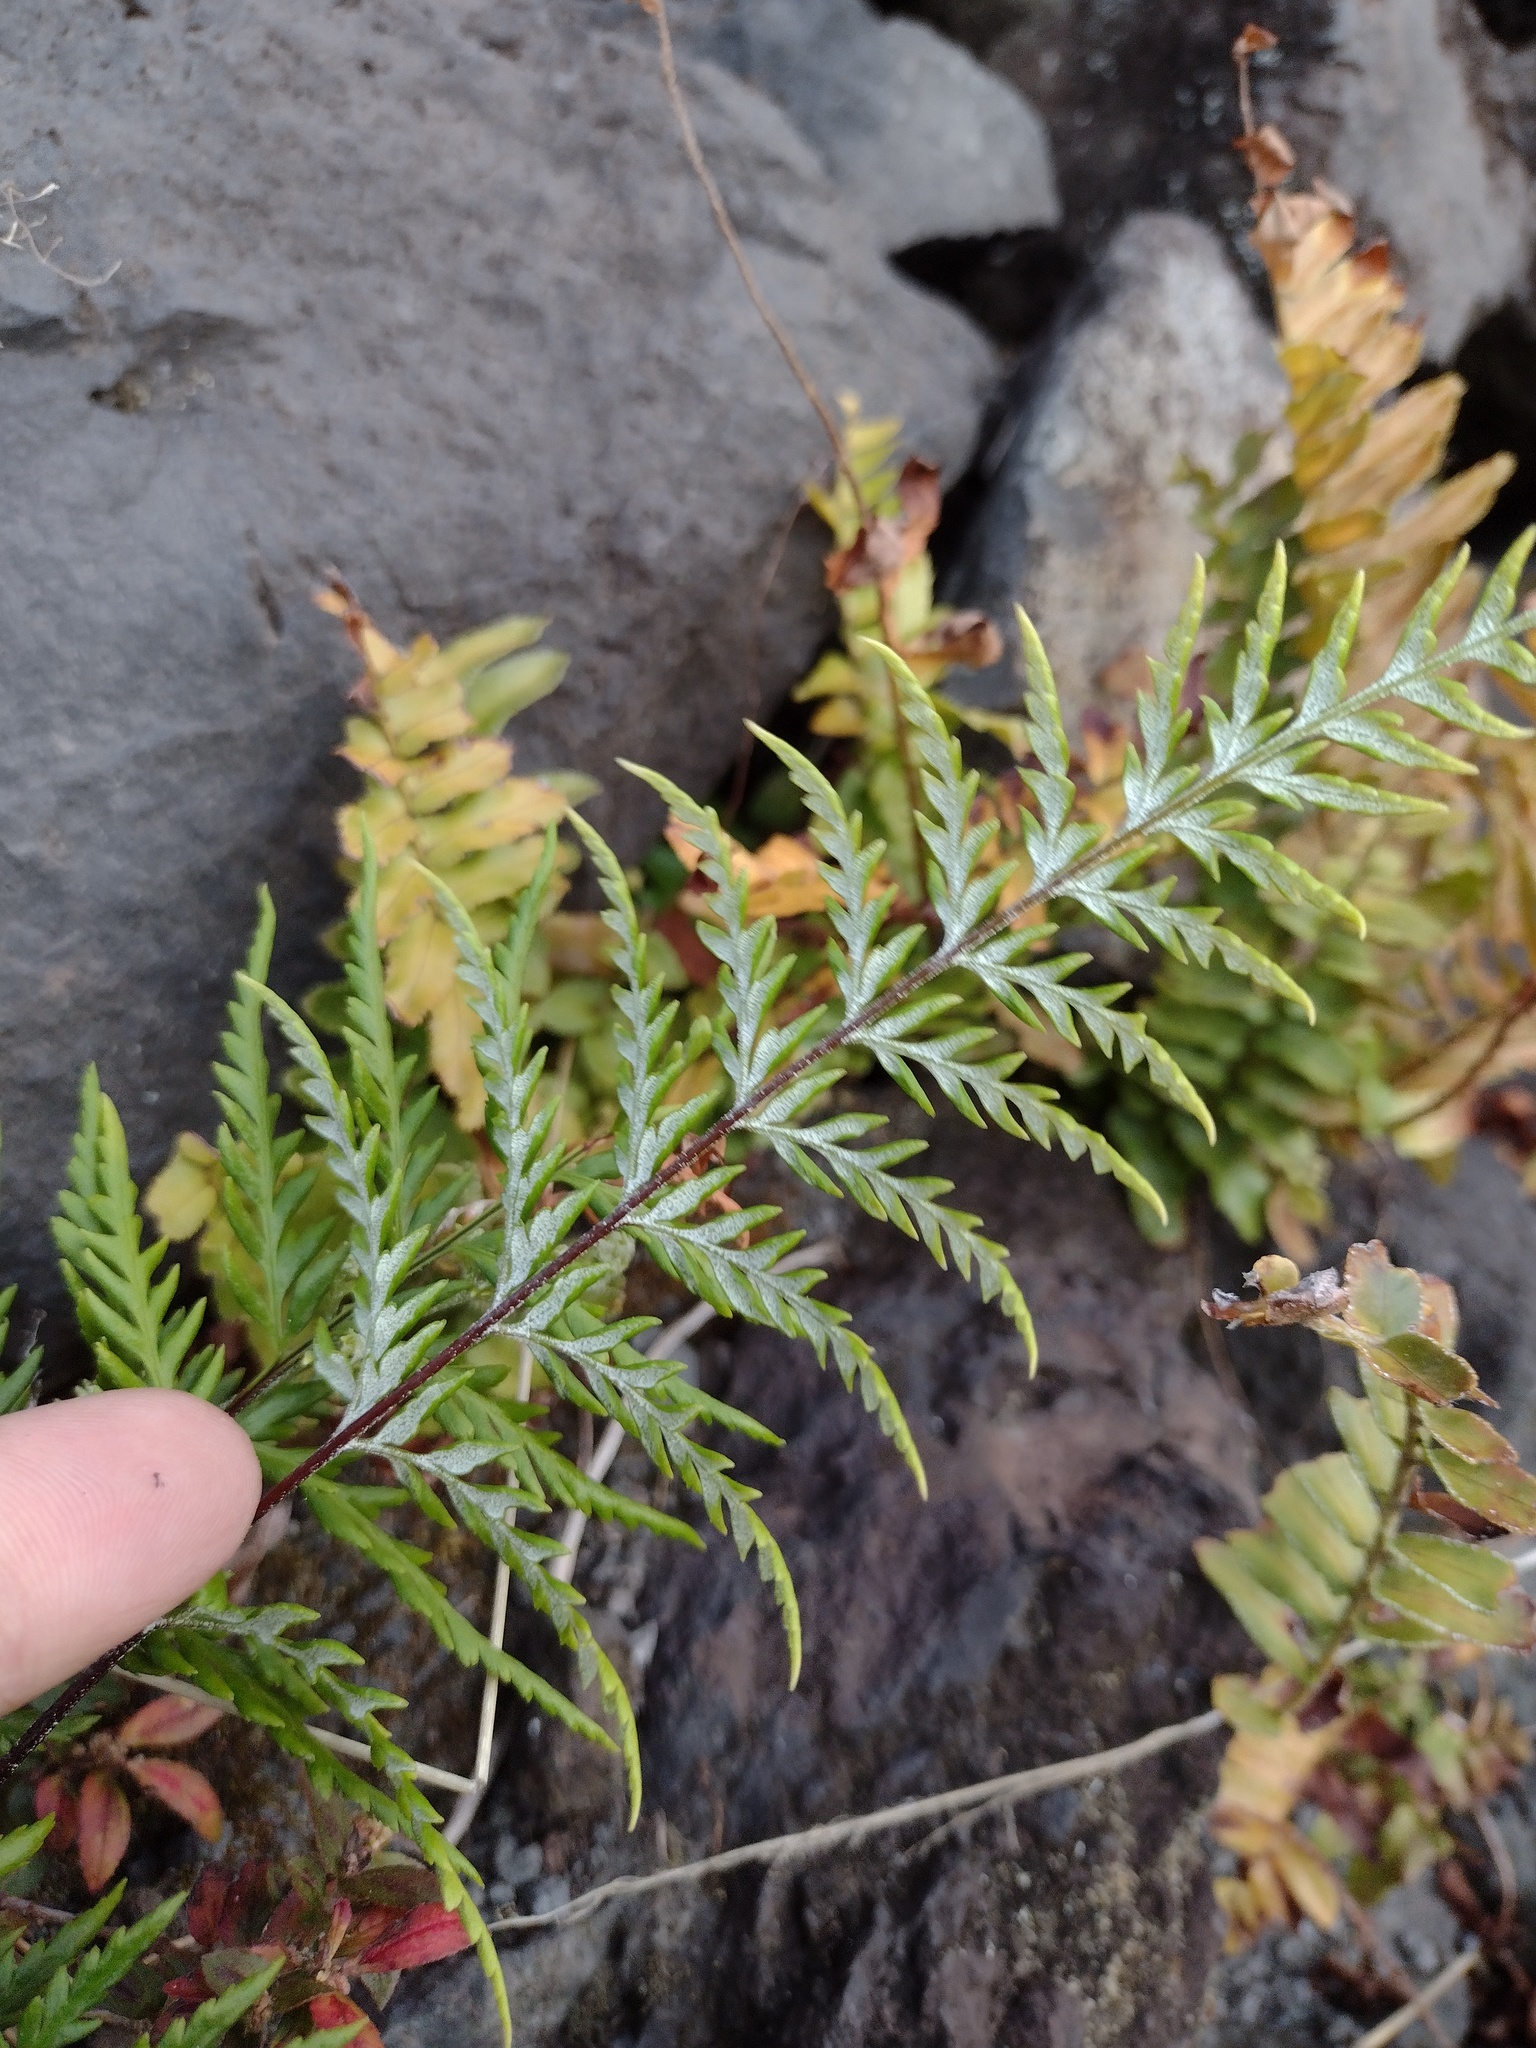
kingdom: Plantae
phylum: Tracheophyta
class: Polypodiopsida
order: Polypodiales
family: Pteridaceae
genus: Pityrogramma
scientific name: Pityrogramma calomelanos
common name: Dixie silverback fern
